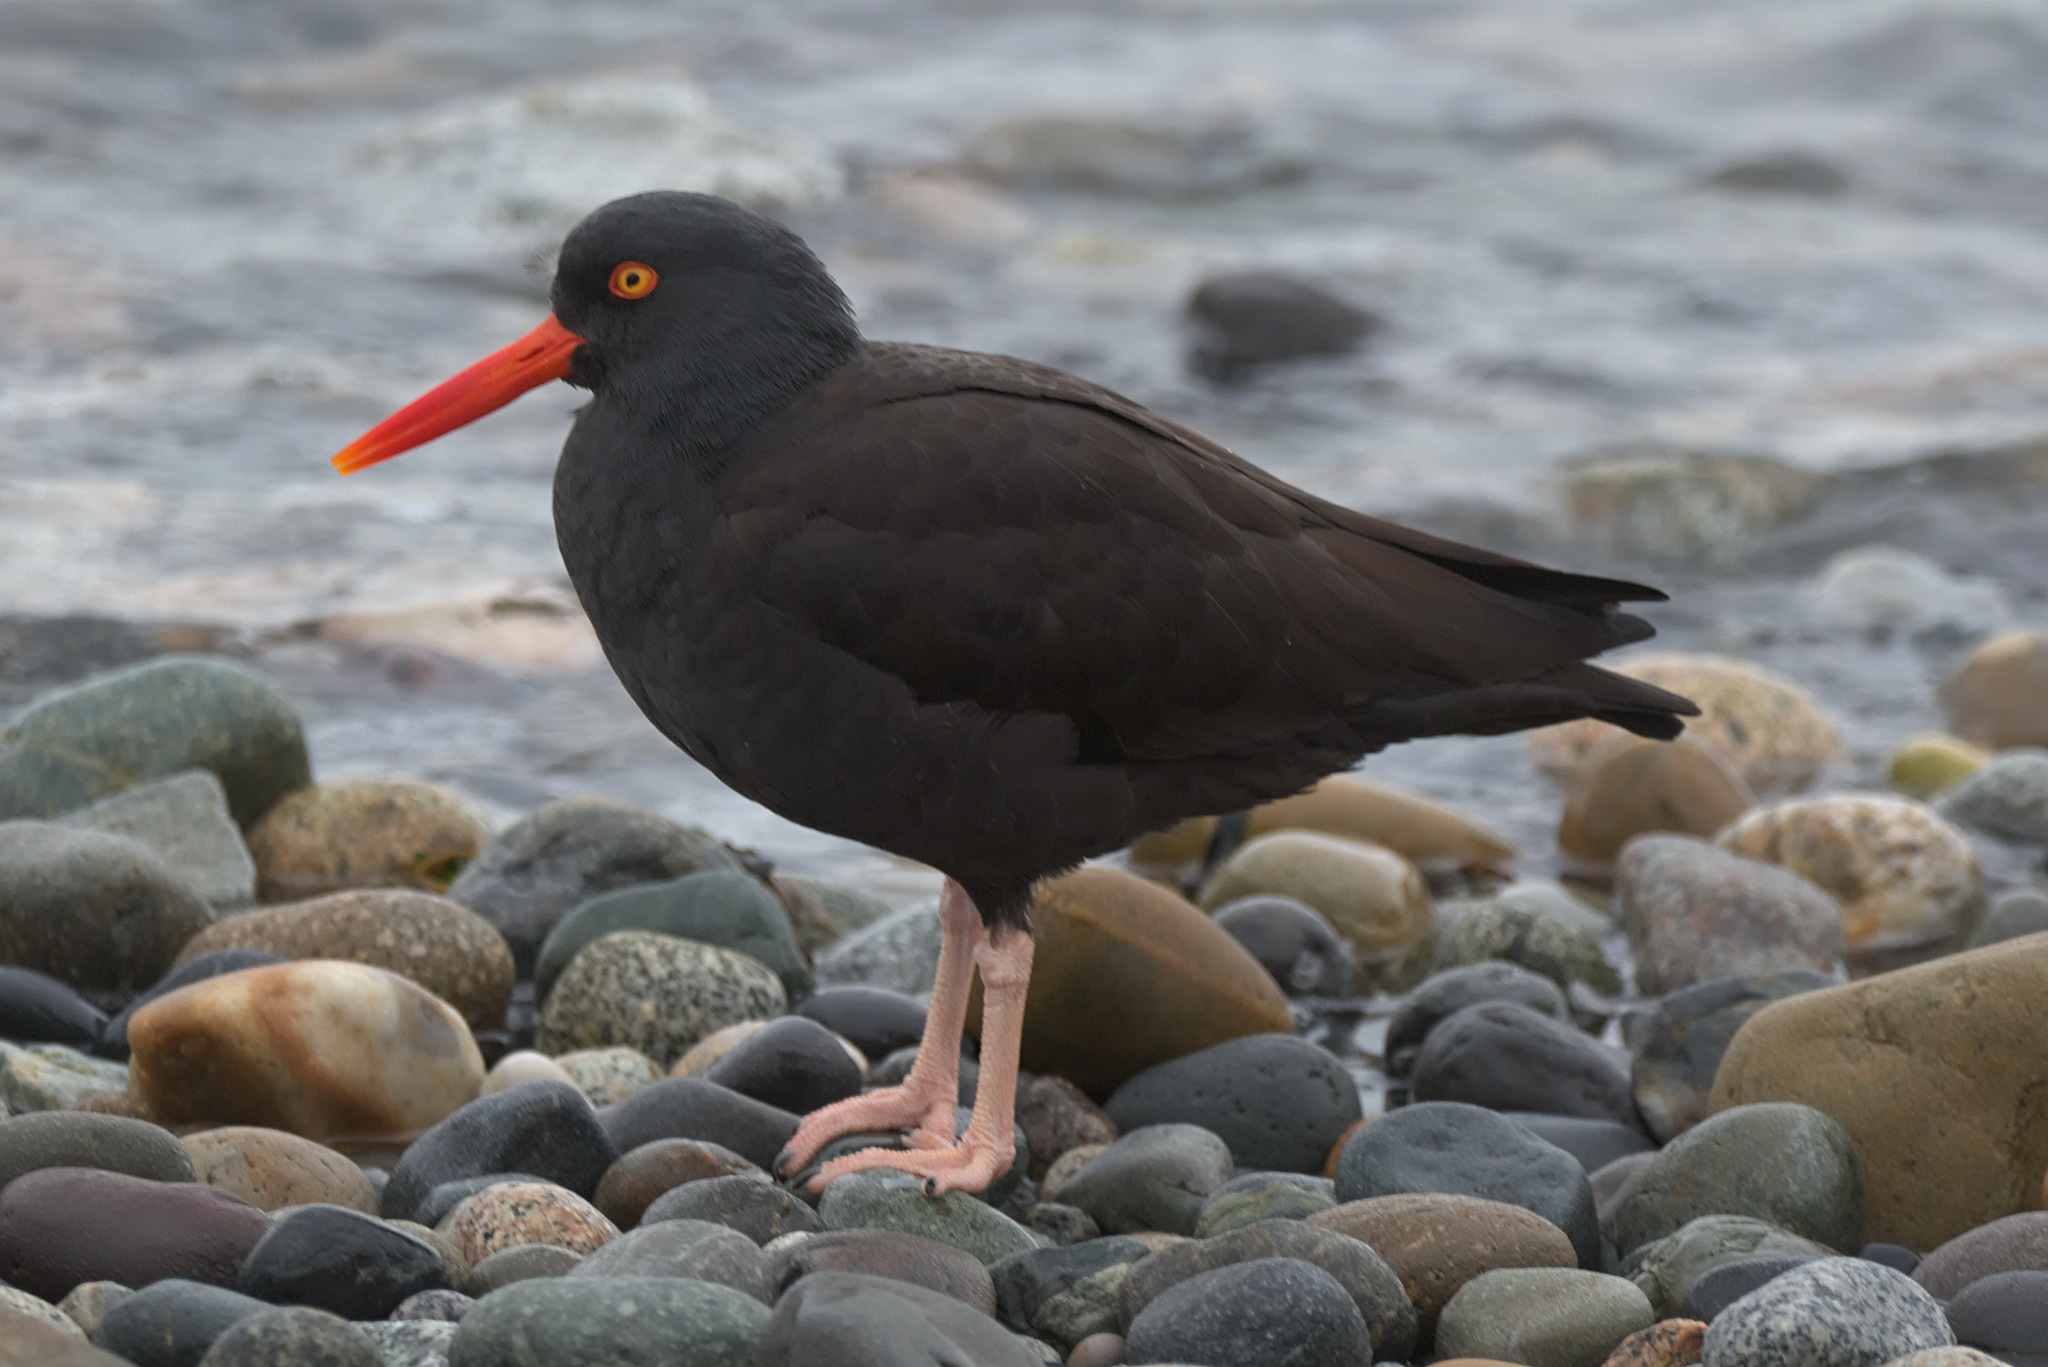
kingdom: Animalia
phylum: Chordata
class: Aves
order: Charadriiformes
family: Haematopodidae
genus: Haematopus
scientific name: Haematopus bachmani
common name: Black oystercatcher
